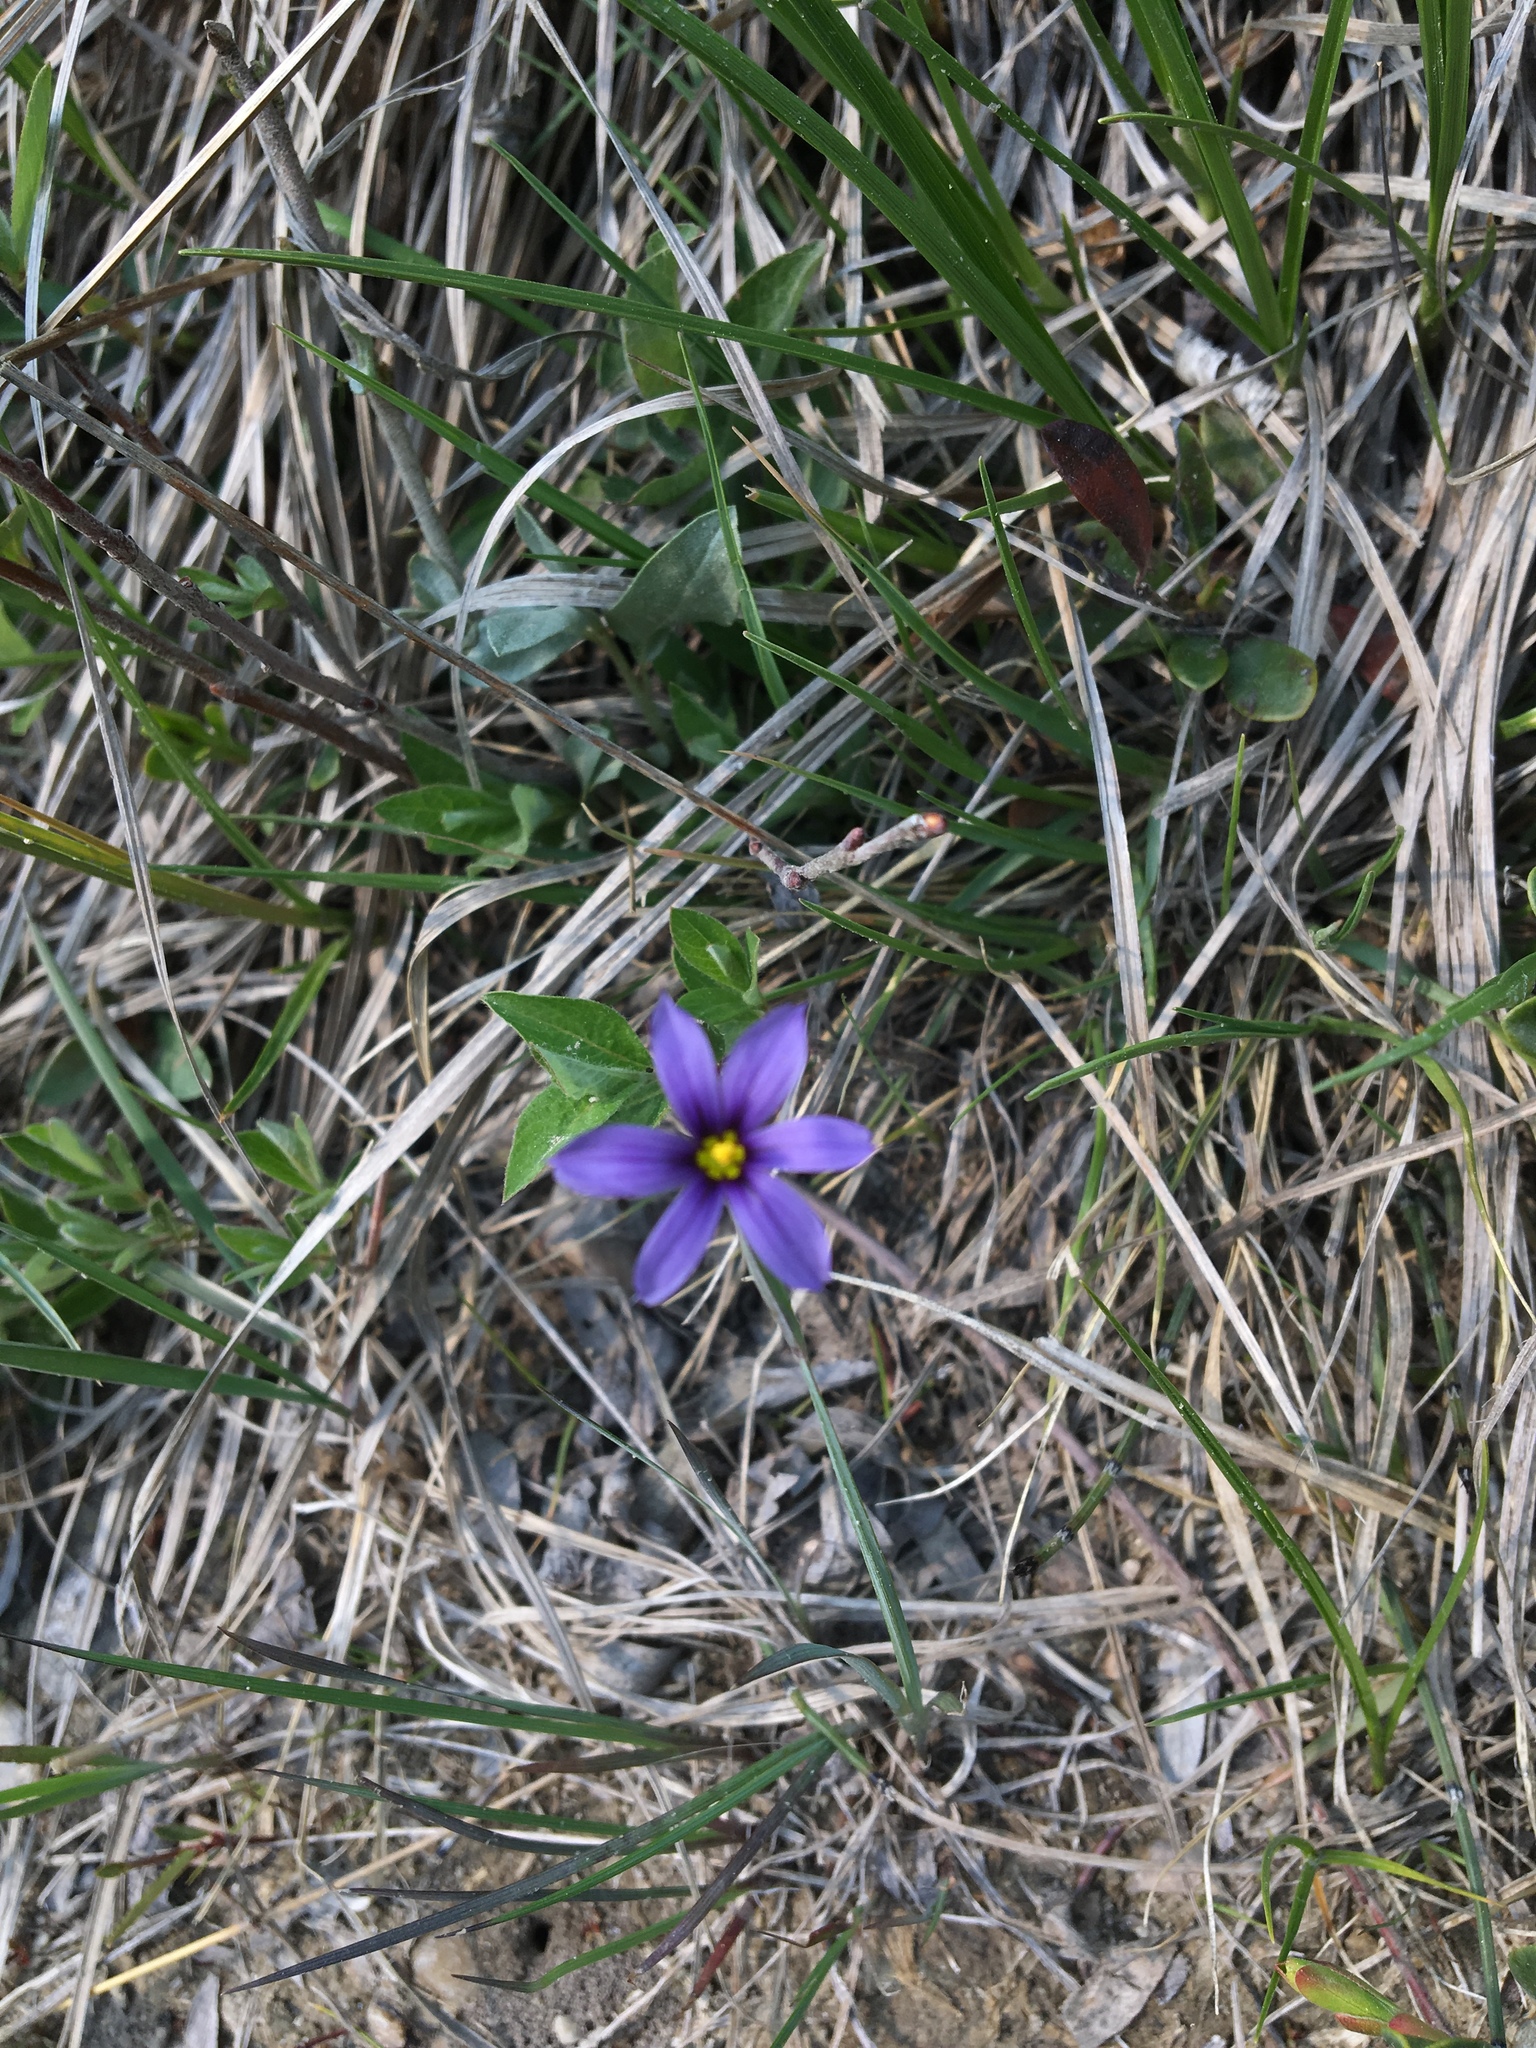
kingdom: Plantae
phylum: Tracheophyta
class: Liliopsida
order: Asparagales
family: Iridaceae
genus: Sisyrinchium
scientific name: Sisyrinchium montanum
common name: American blue-eyed-grass
